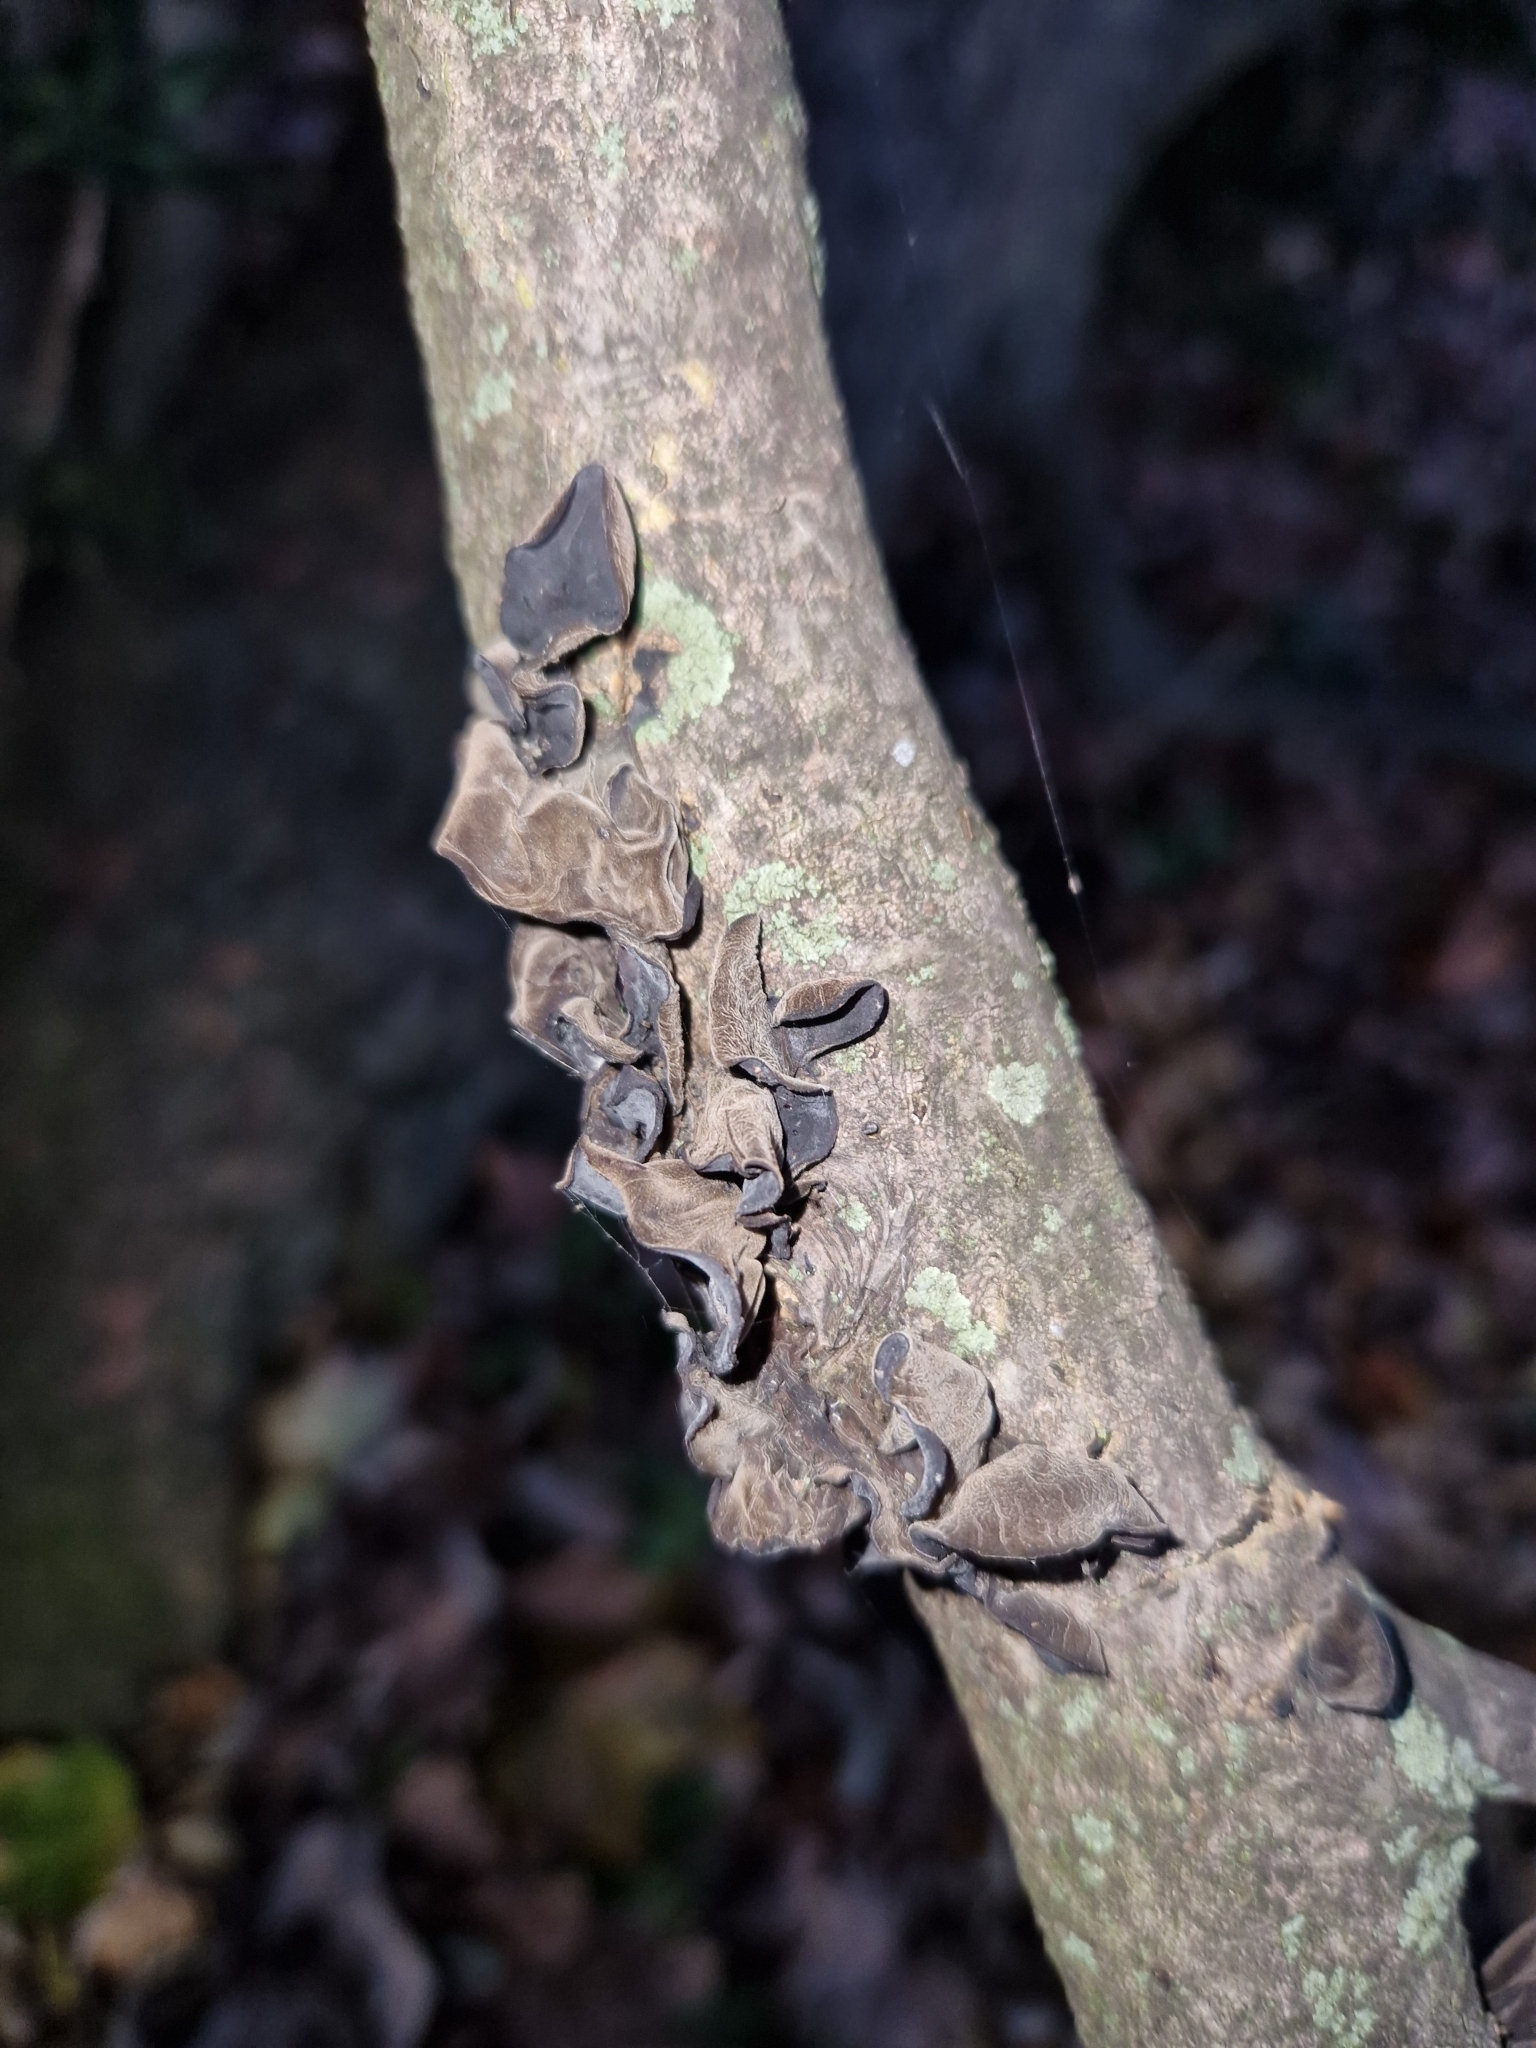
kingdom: Fungi
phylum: Basidiomycota
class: Agaricomycetes
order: Auriculariales
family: Auriculariaceae
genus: Auricularia
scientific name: Auricularia auricula-judae
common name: Jelly ear
